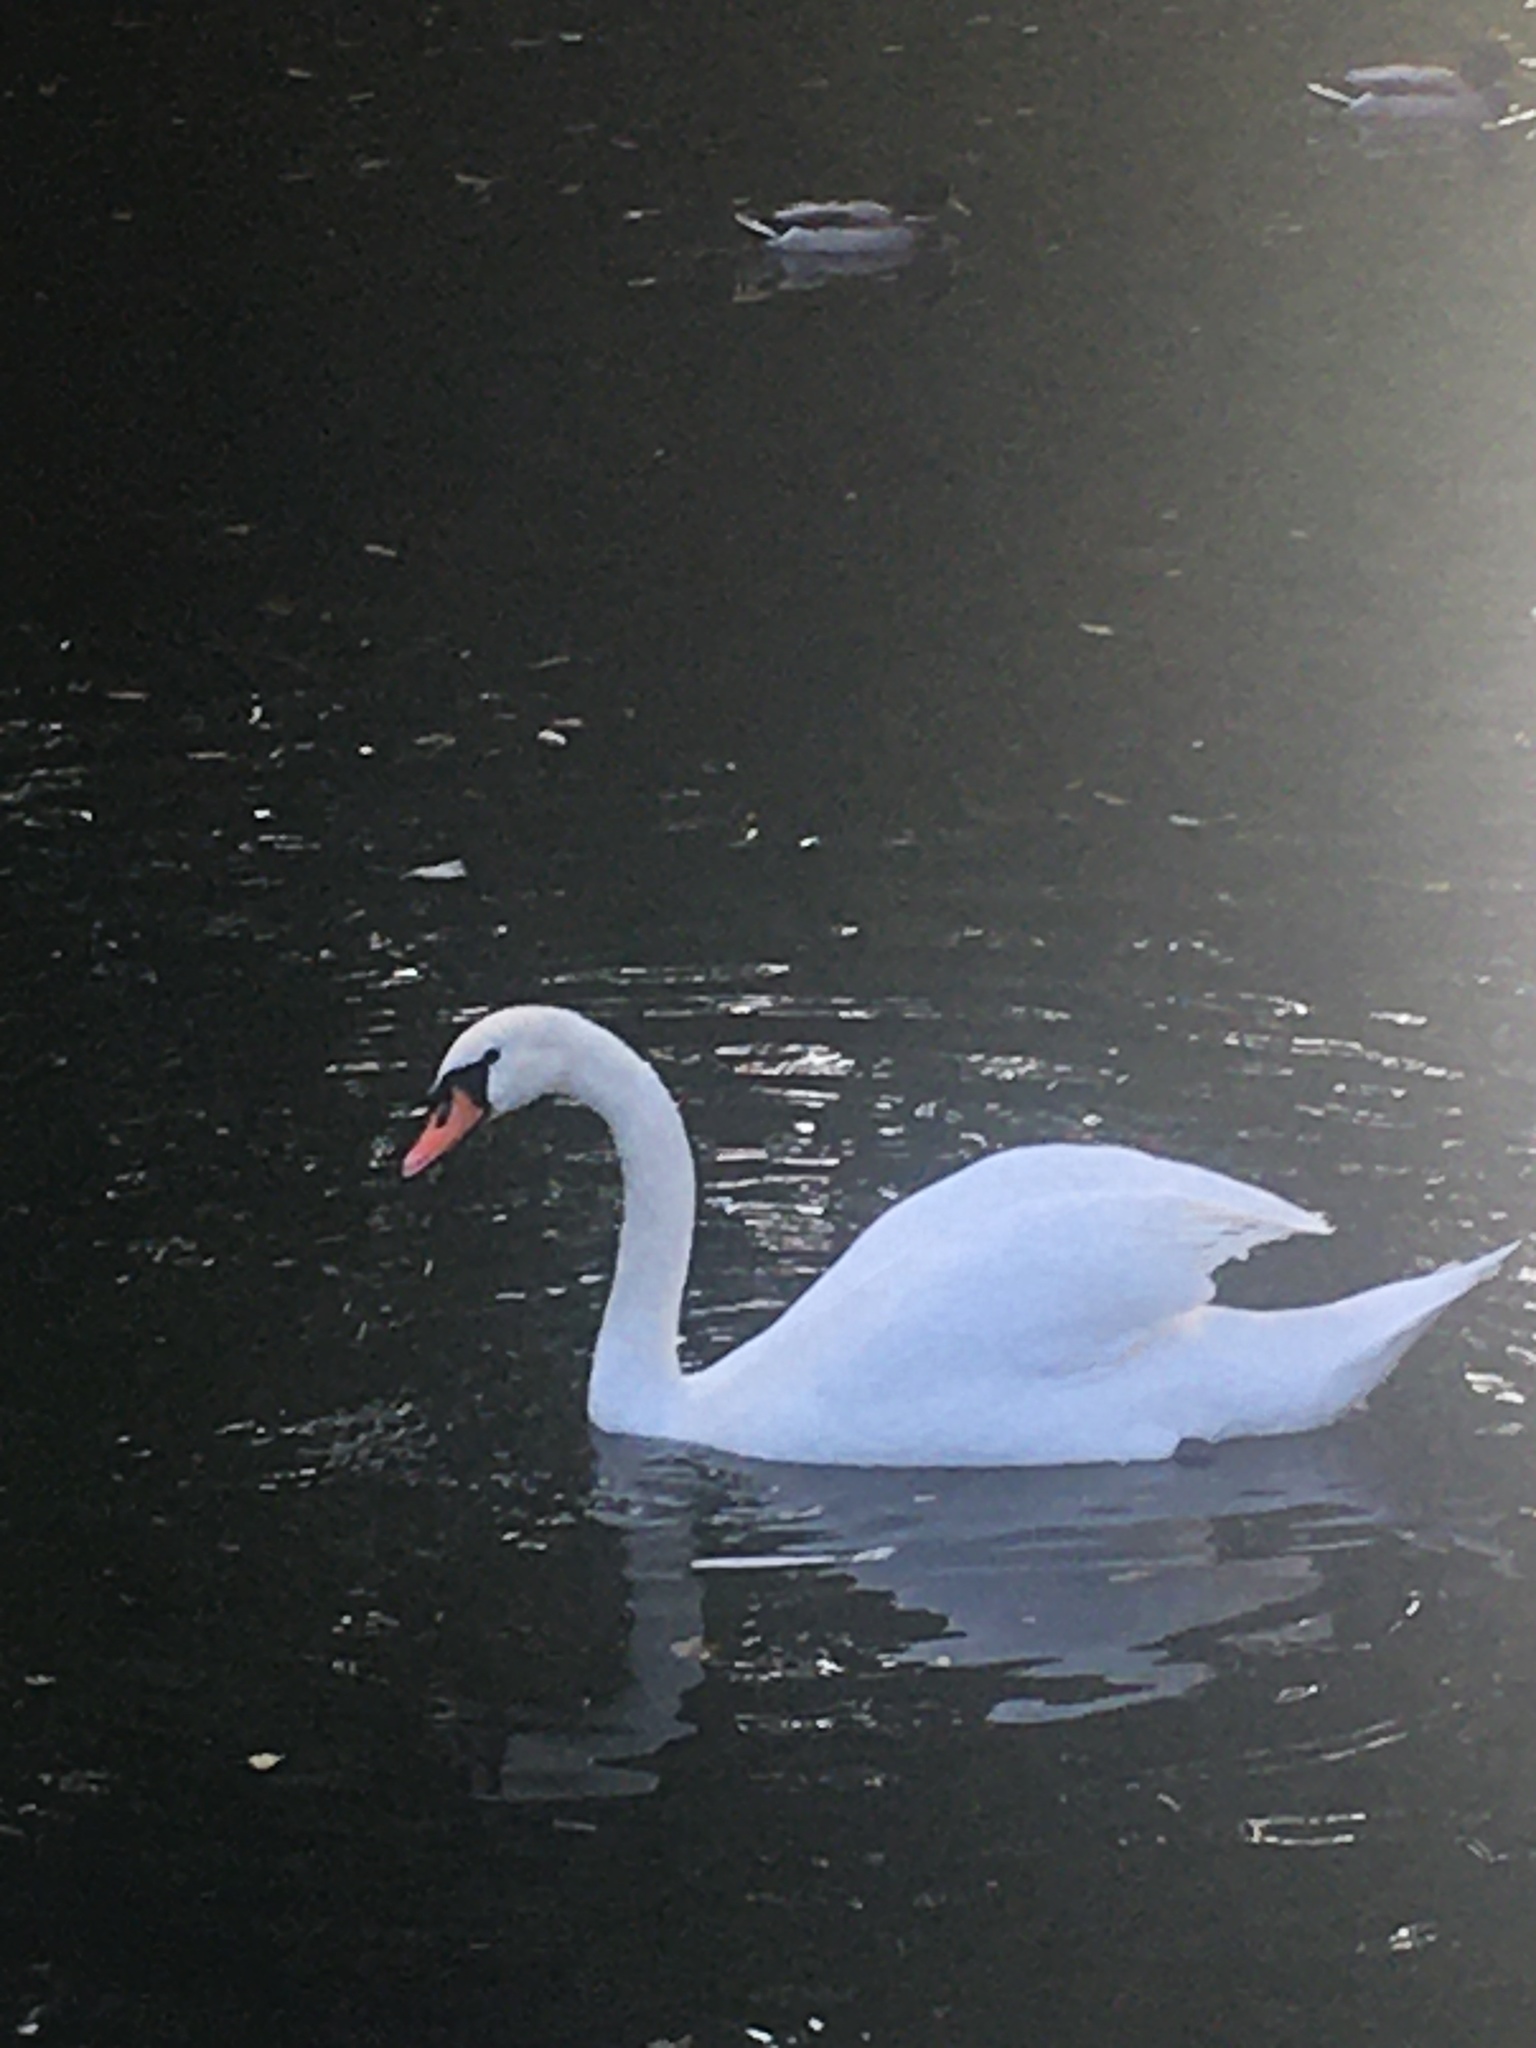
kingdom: Animalia
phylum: Chordata
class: Aves
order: Anseriformes
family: Anatidae
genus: Cygnus
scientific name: Cygnus olor
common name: Mute swan
